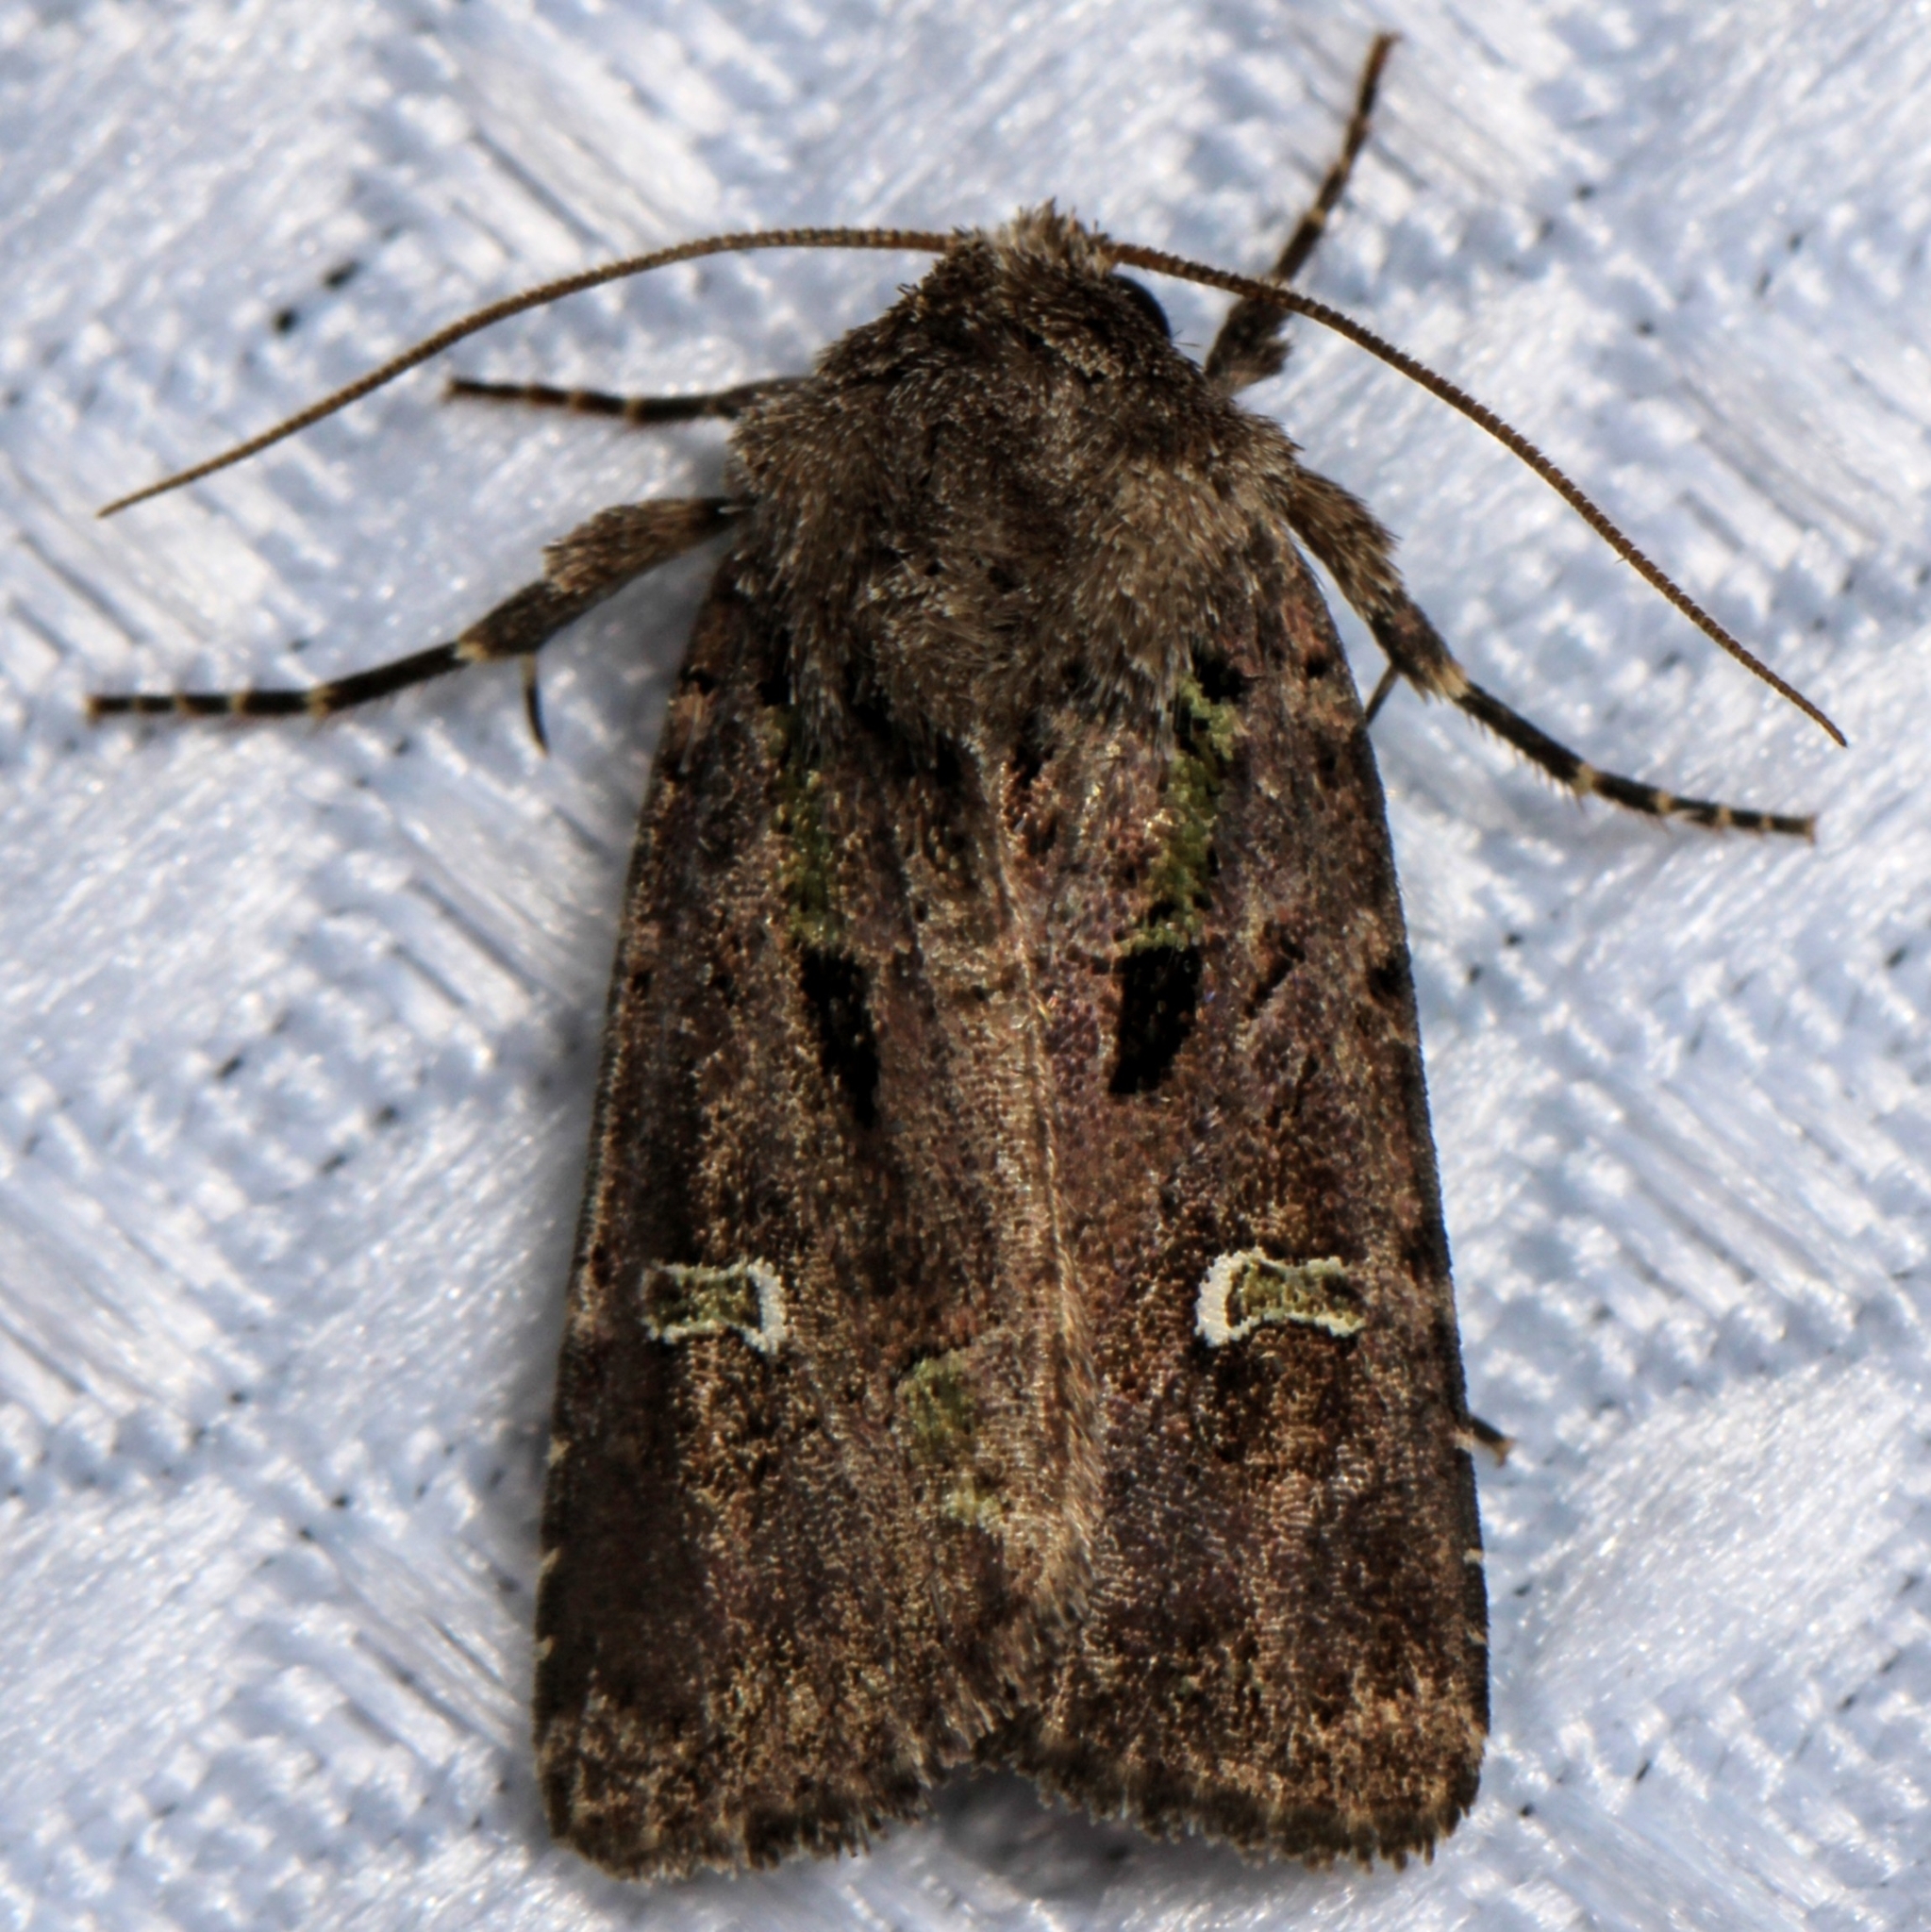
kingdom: Animalia
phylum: Arthropoda
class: Insecta
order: Lepidoptera
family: Noctuidae
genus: Lacinipolia
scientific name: Lacinipolia renigera
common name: Kidney-spotted minor
